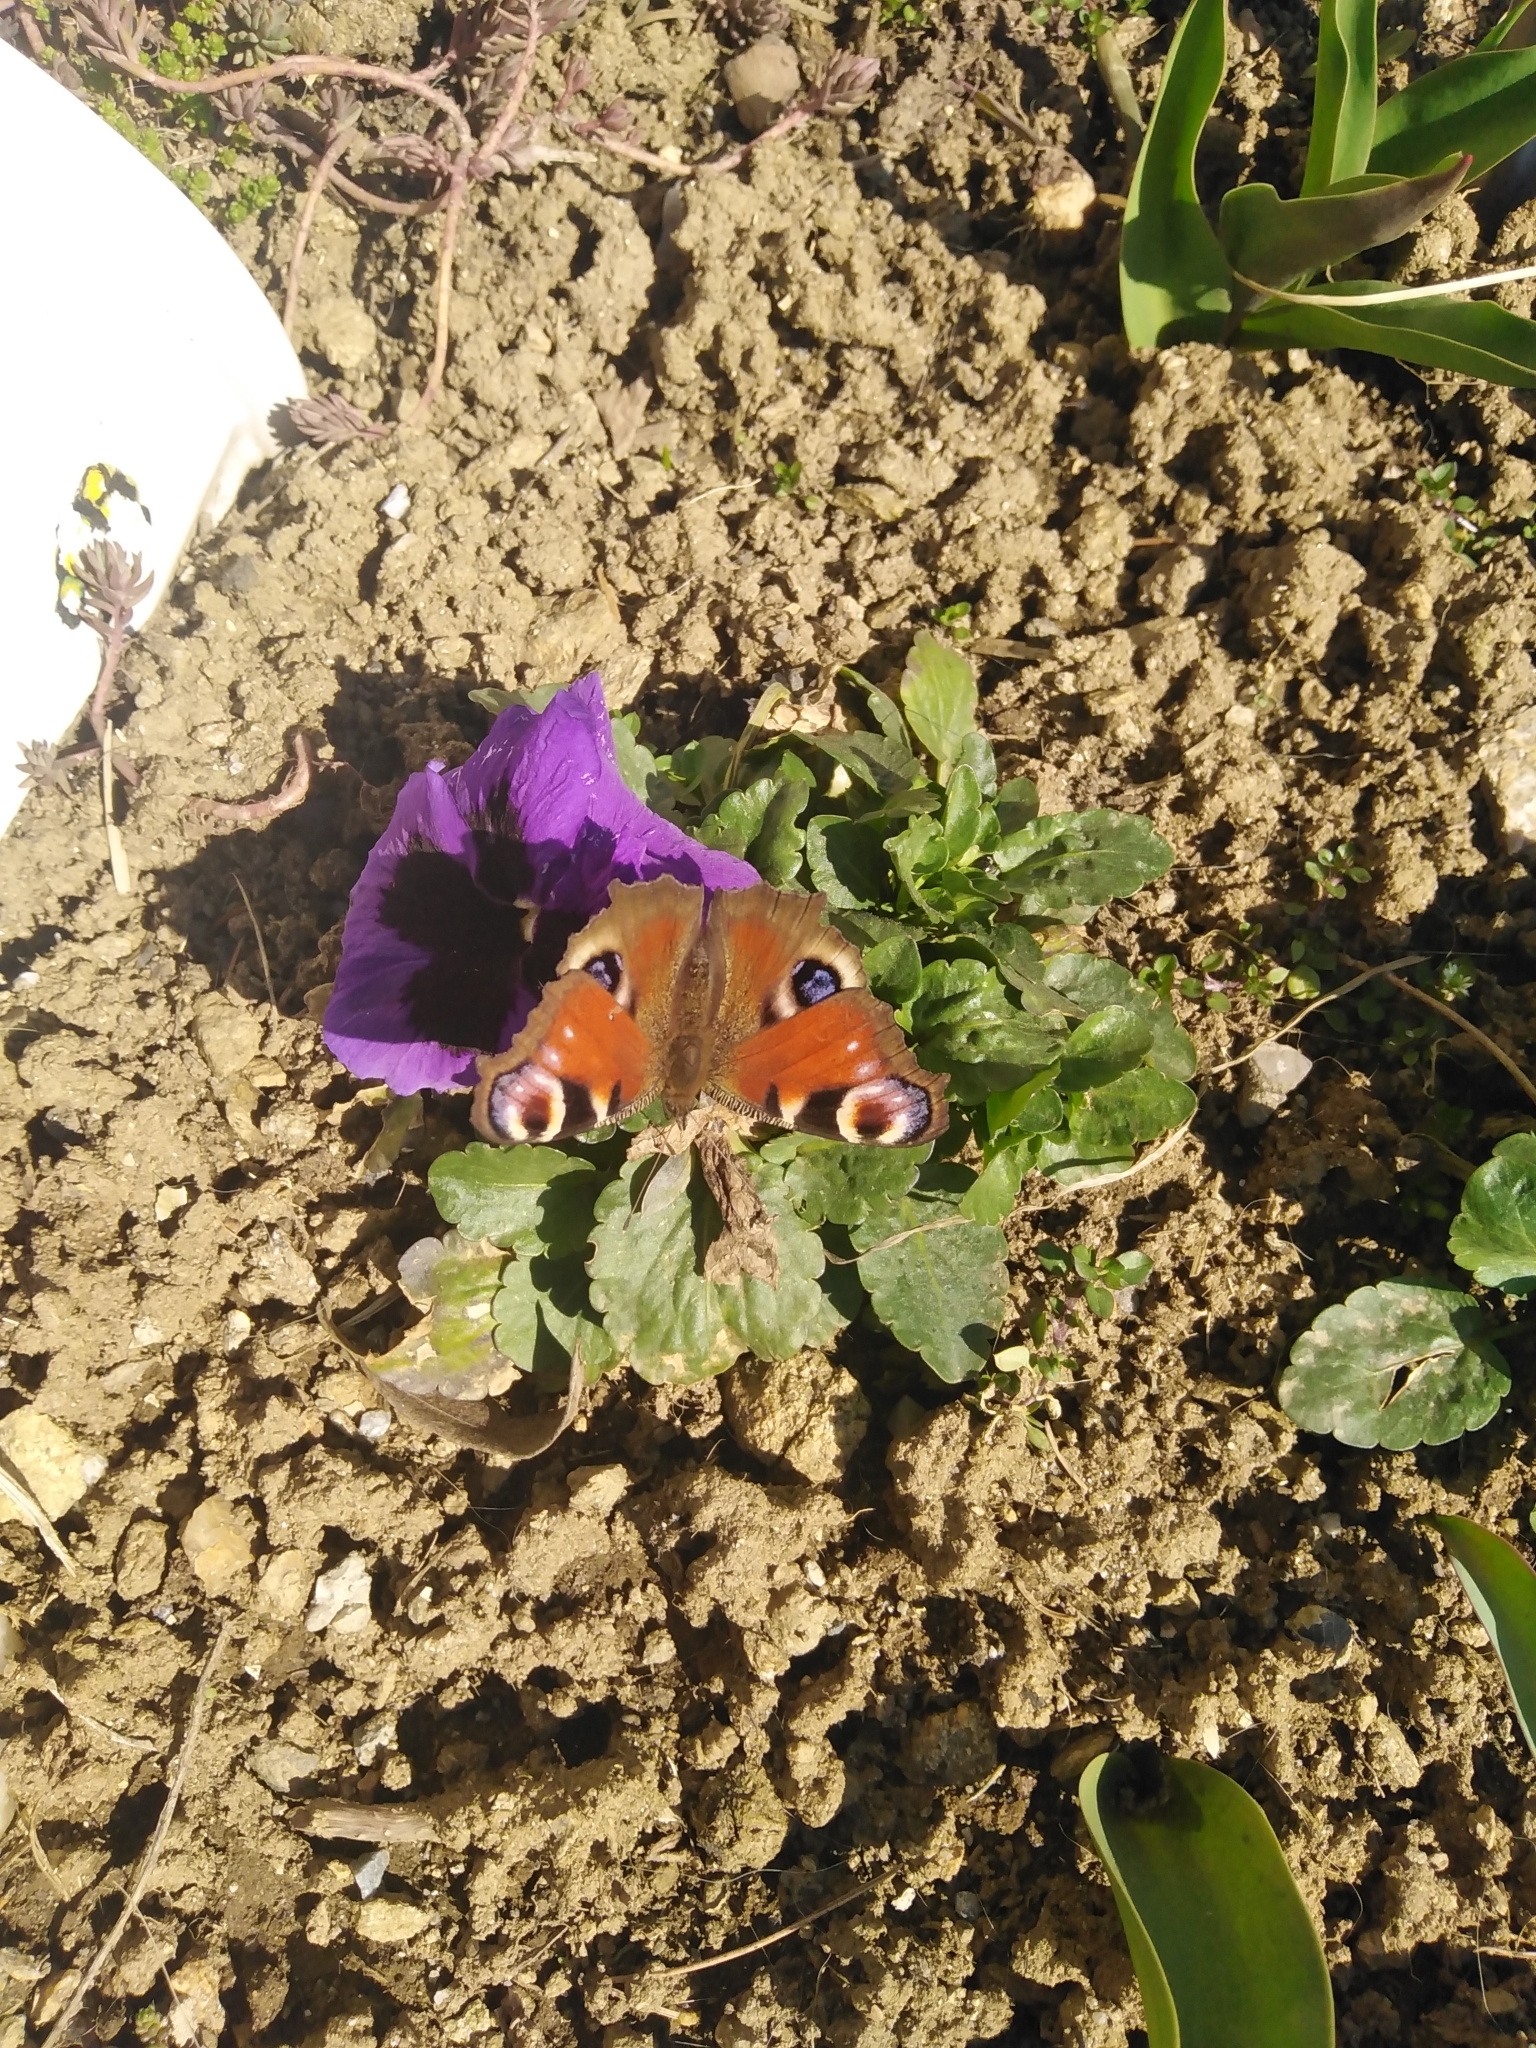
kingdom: Animalia
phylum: Arthropoda
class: Insecta
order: Lepidoptera
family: Nymphalidae
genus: Aglais
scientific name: Aglais io
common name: Peacock
